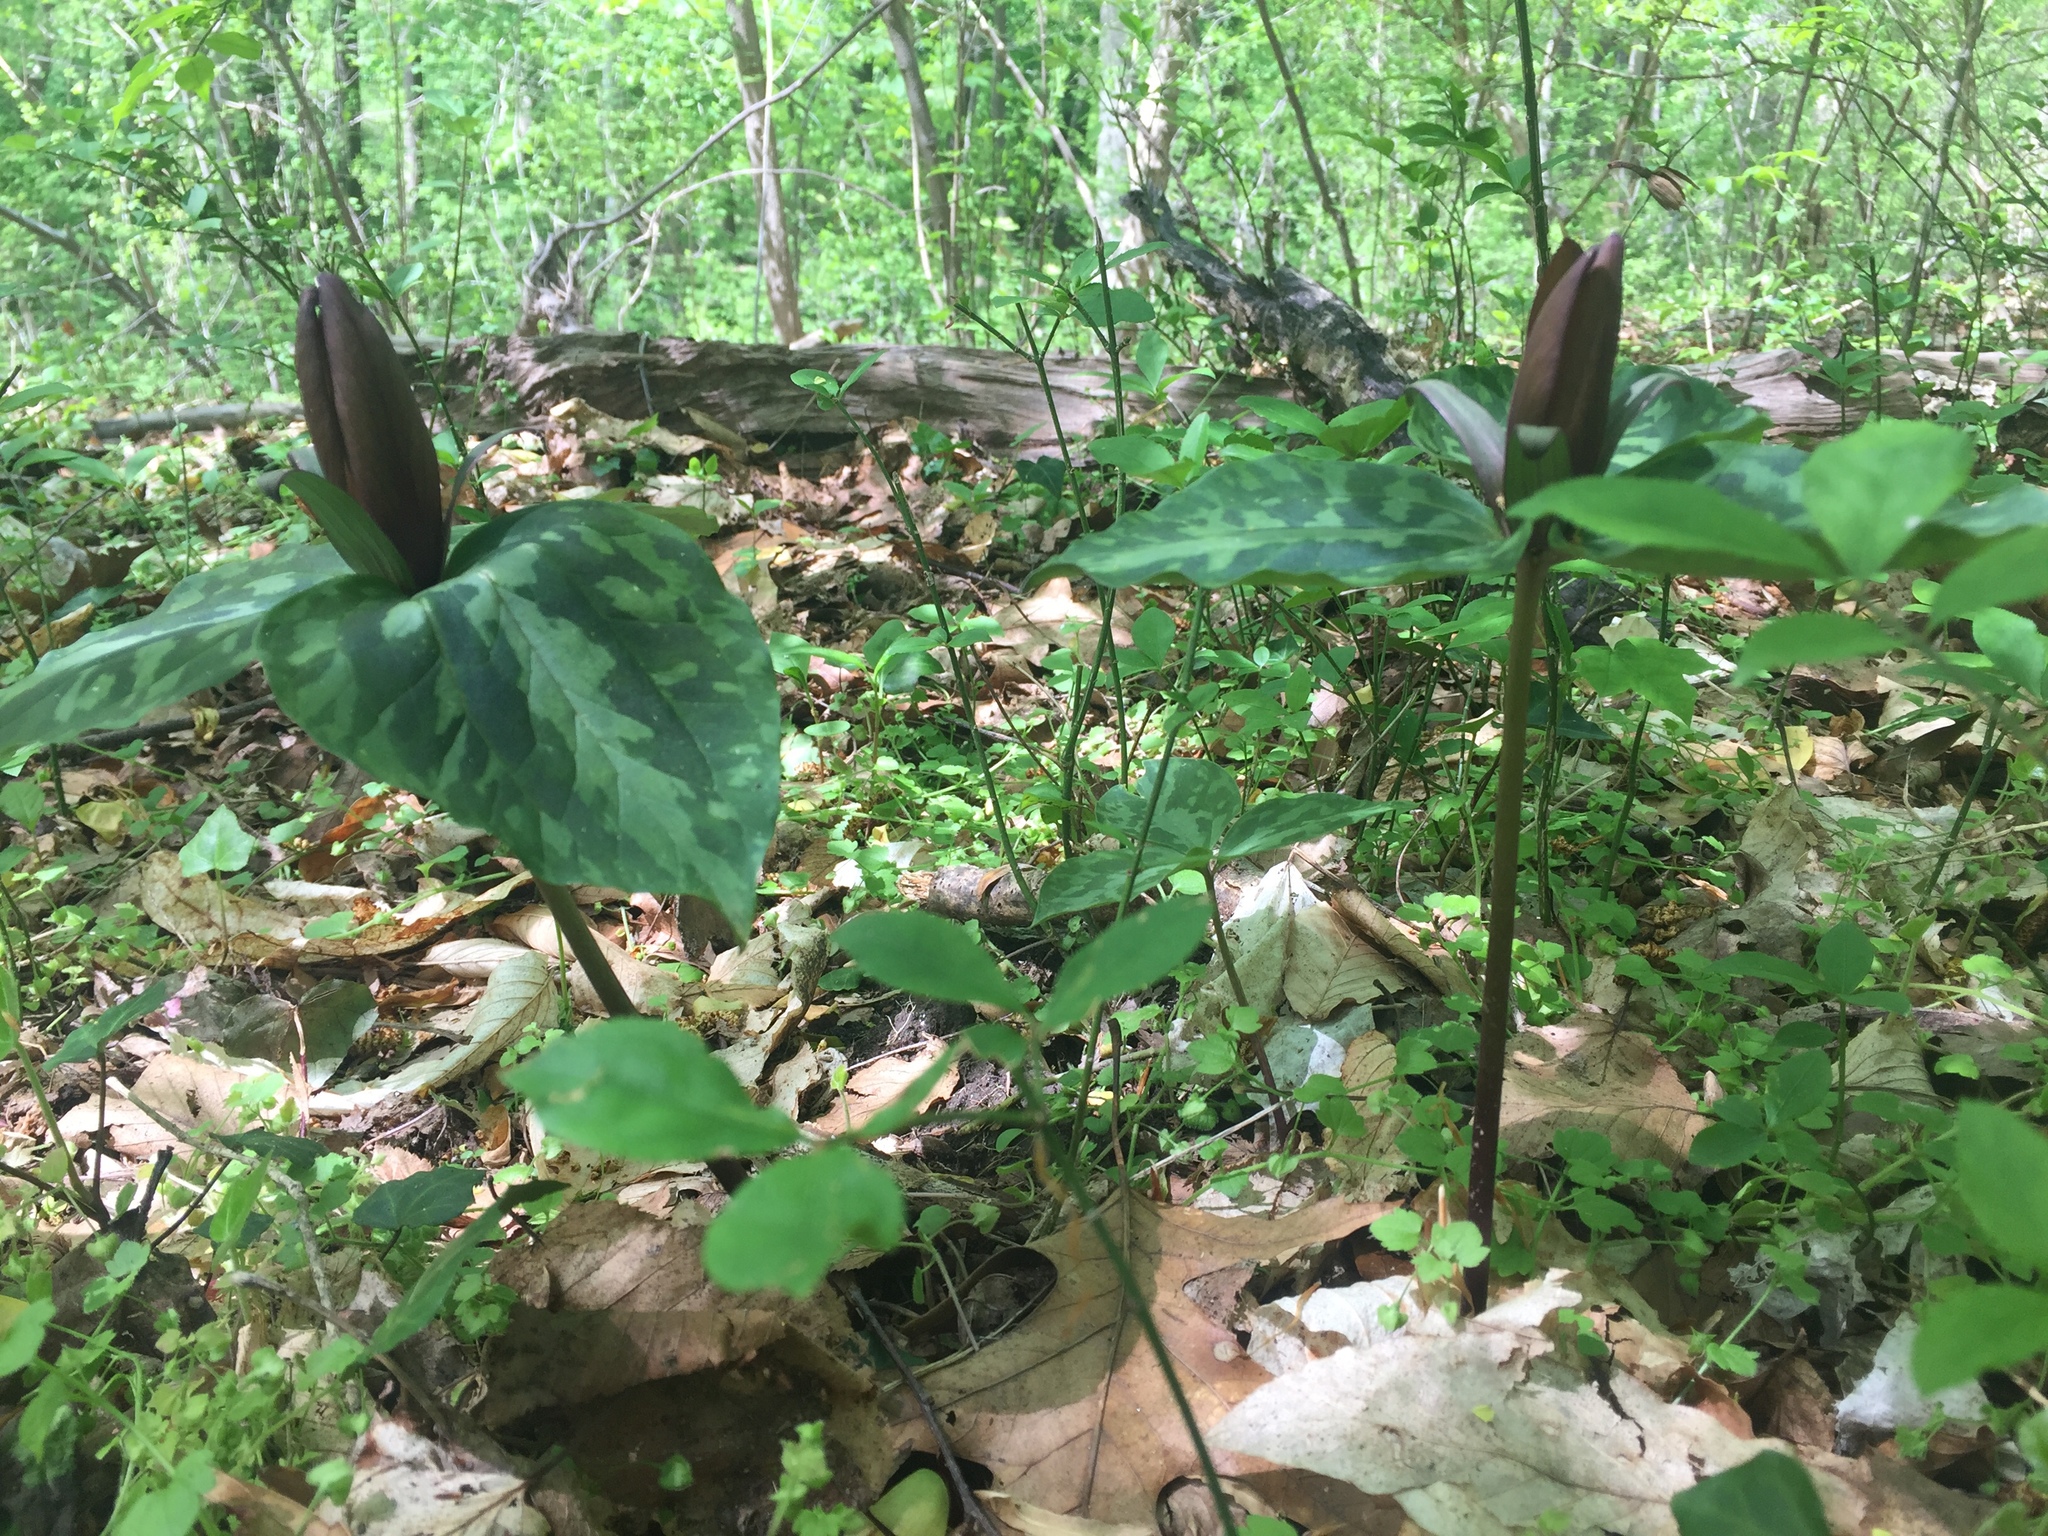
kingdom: Plantae
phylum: Tracheophyta
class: Liliopsida
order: Liliales
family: Melanthiaceae
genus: Trillium
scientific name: Trillium cuneatum
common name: Cuneate trillium
